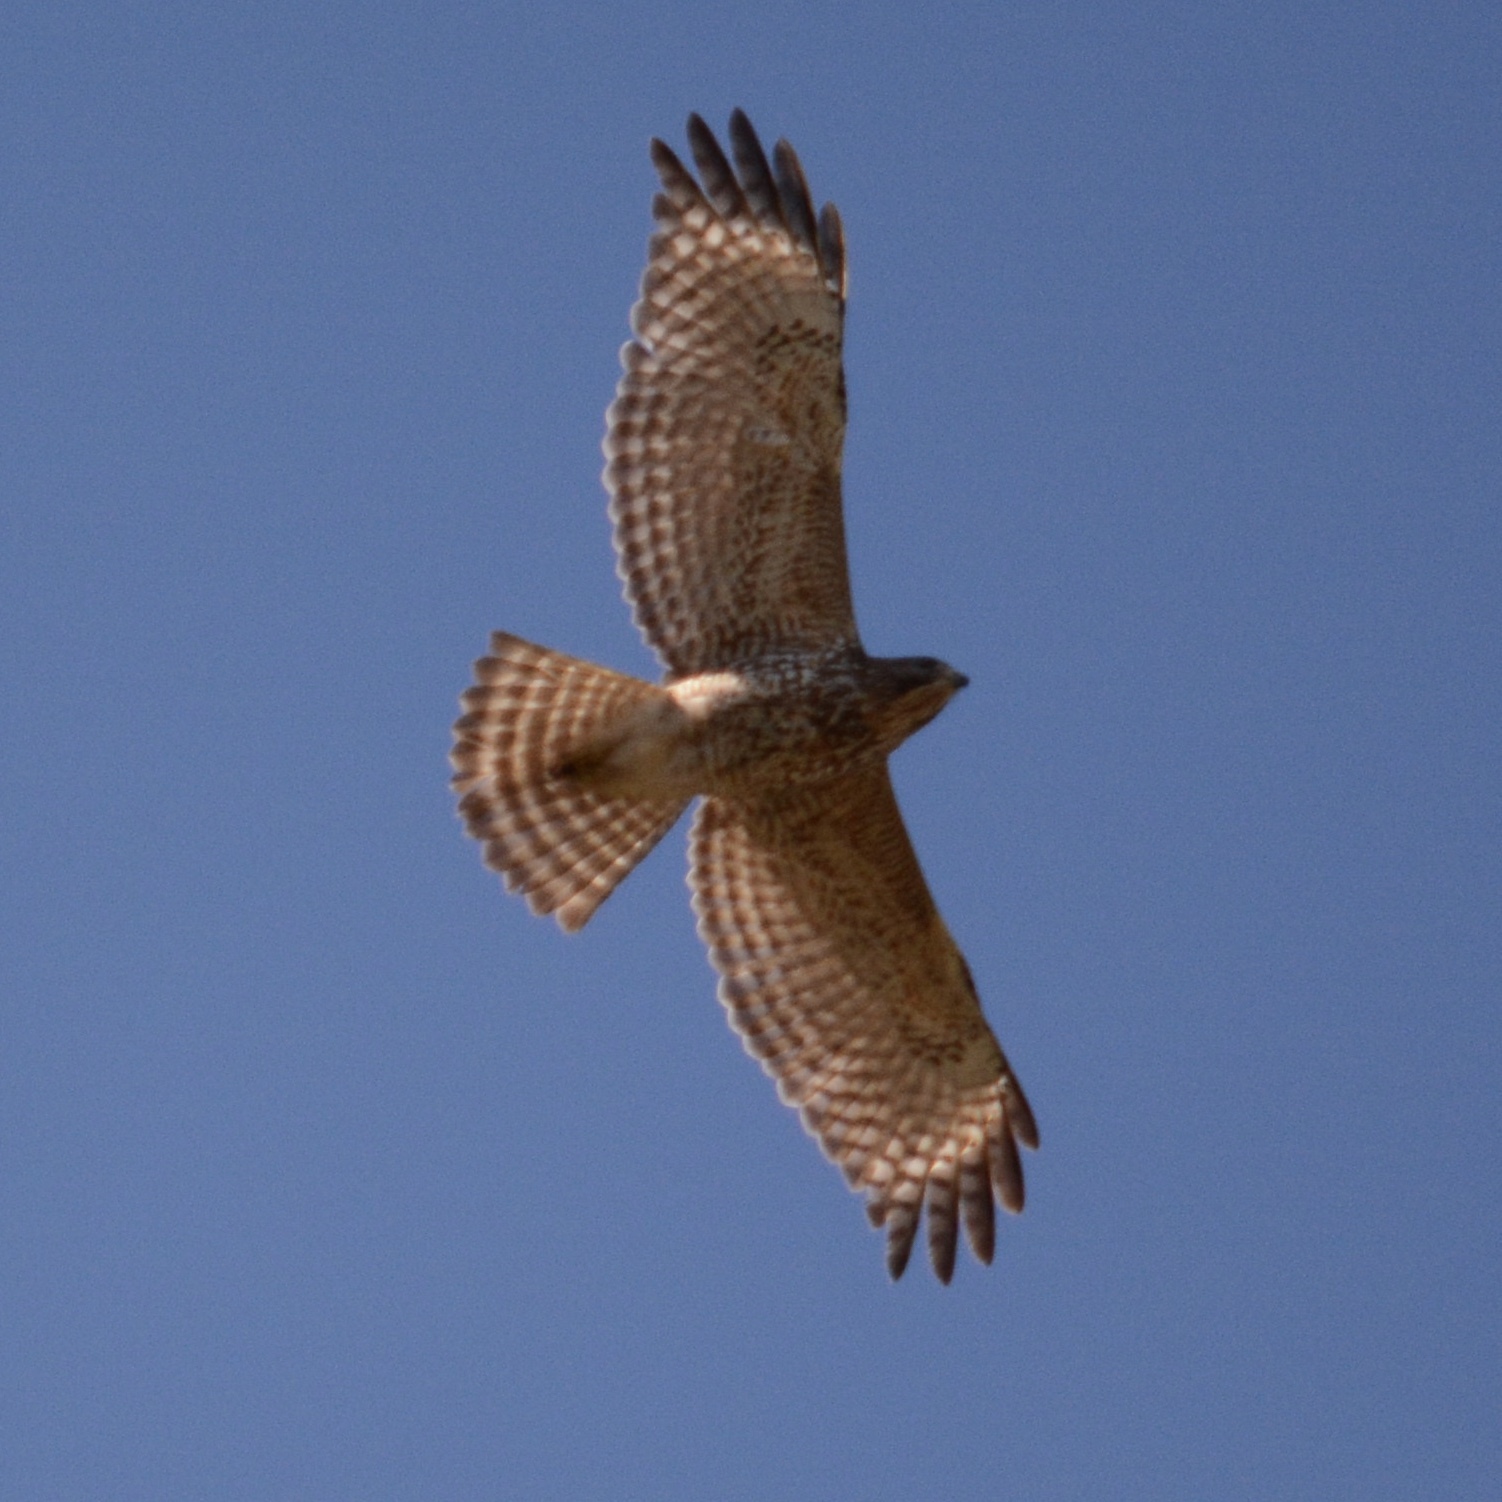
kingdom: Animalia
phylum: Chordata
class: Aves
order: Accipitriformes
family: Accipitridae
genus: Buteo
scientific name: Buteo lineatus
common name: Red-shouldered hawk
